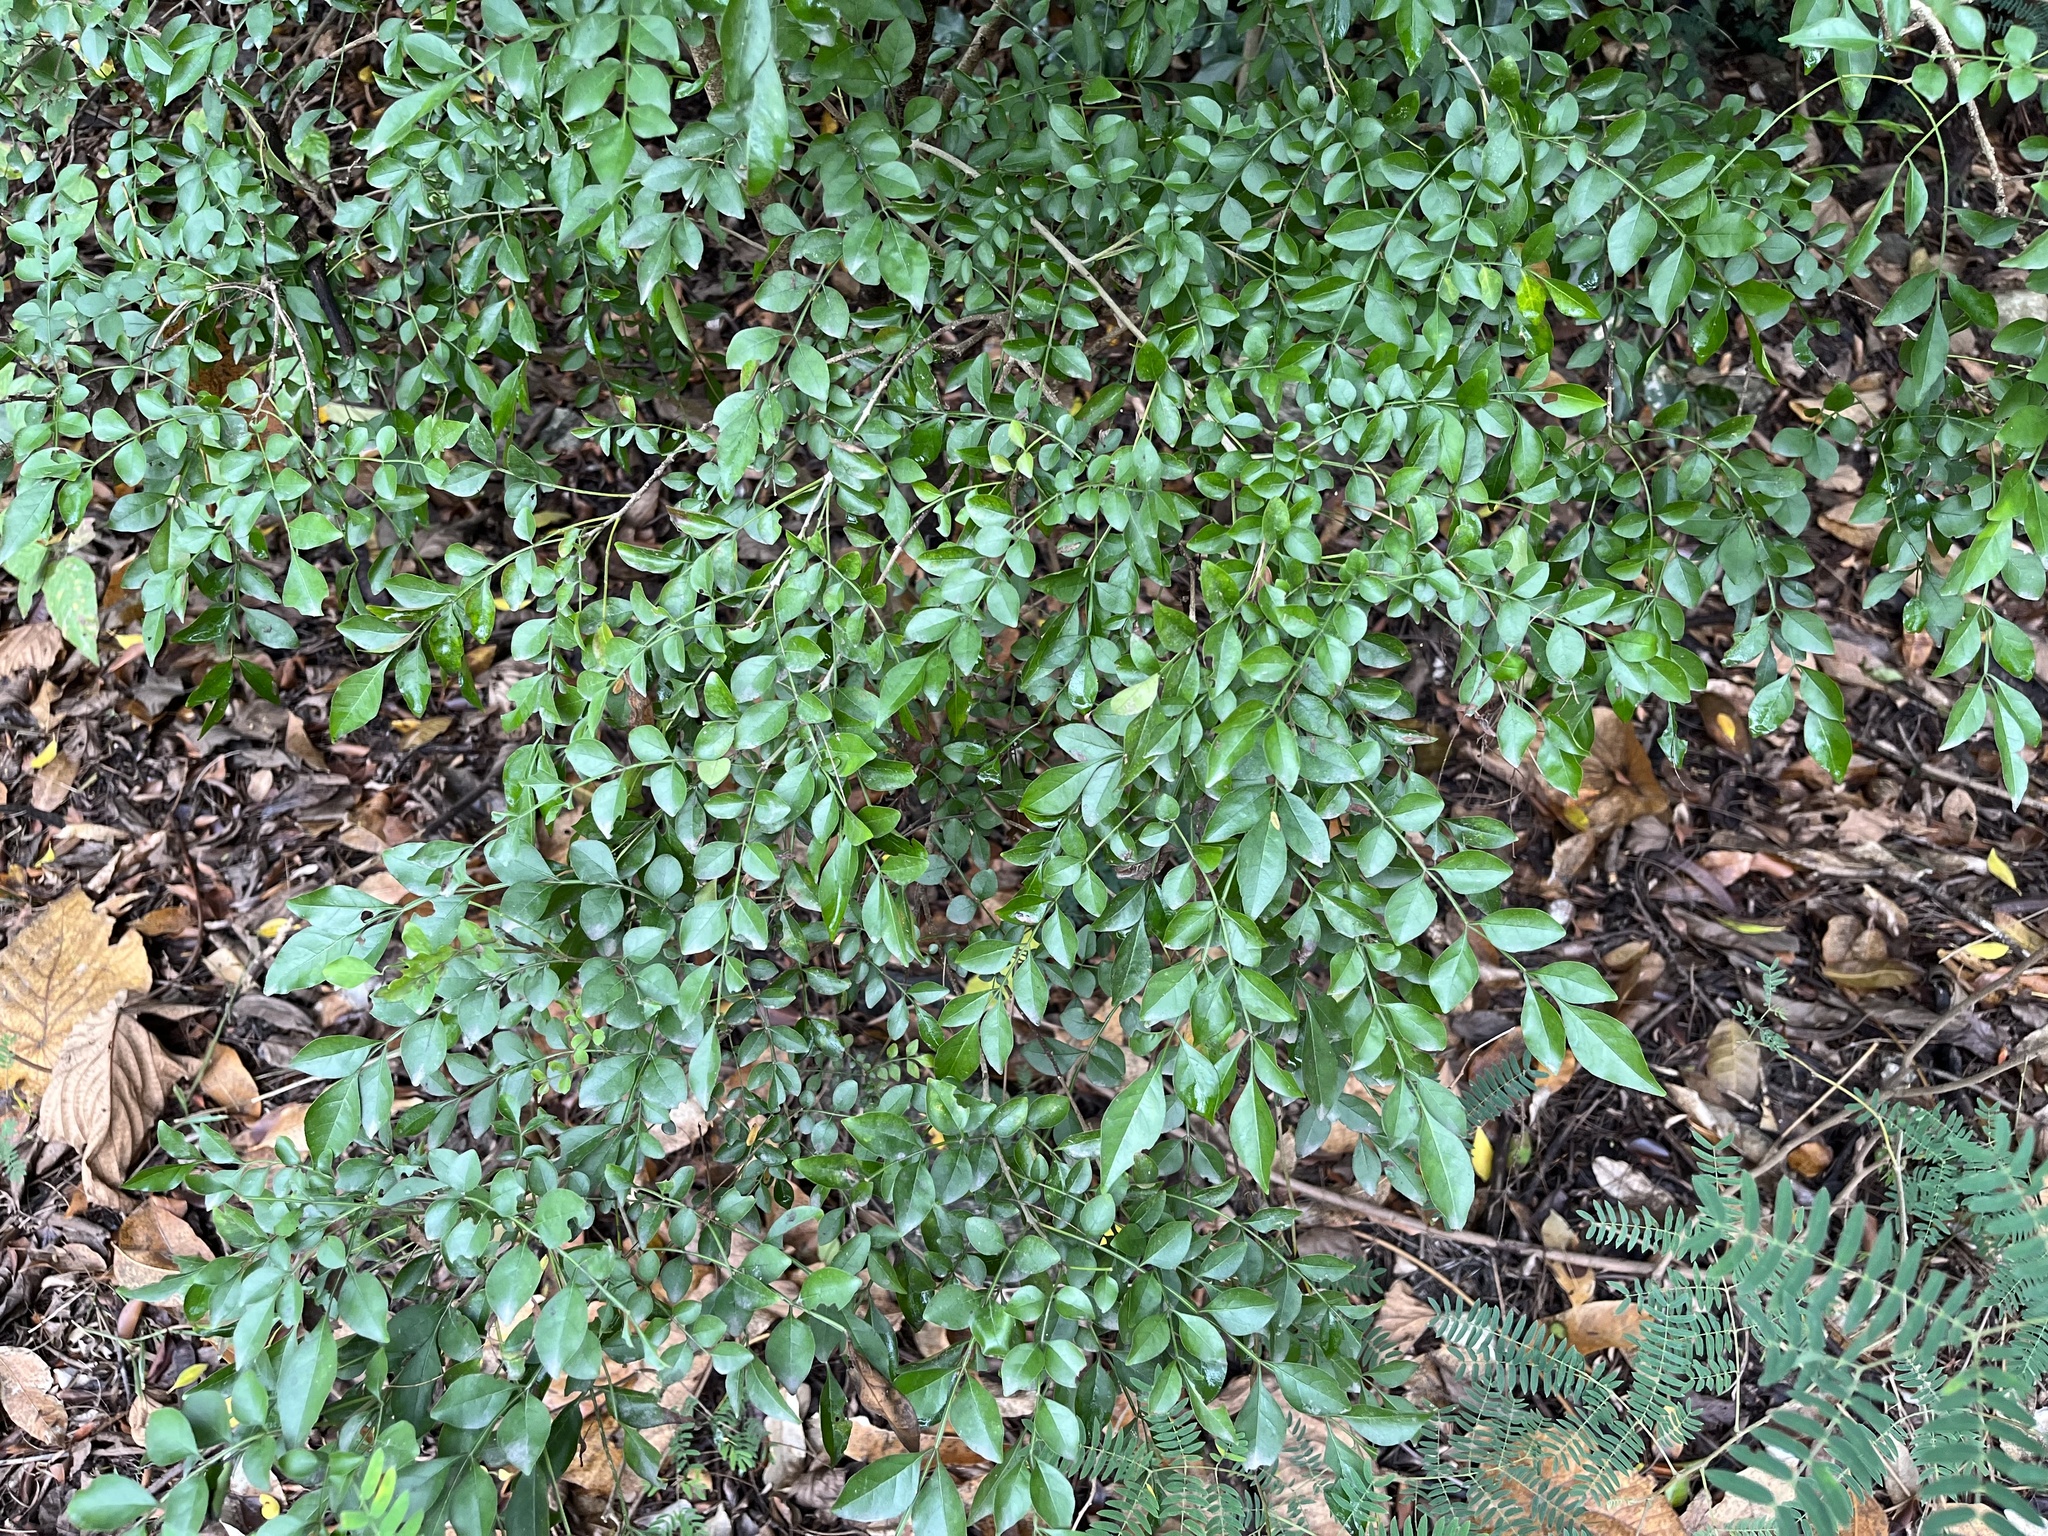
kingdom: Plantae
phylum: Tracheophyta
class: Magnoliopsida
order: Lamiales
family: Oleaceae
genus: Fraxinus
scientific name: Fraxinus griffithii
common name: Himalayan ash
